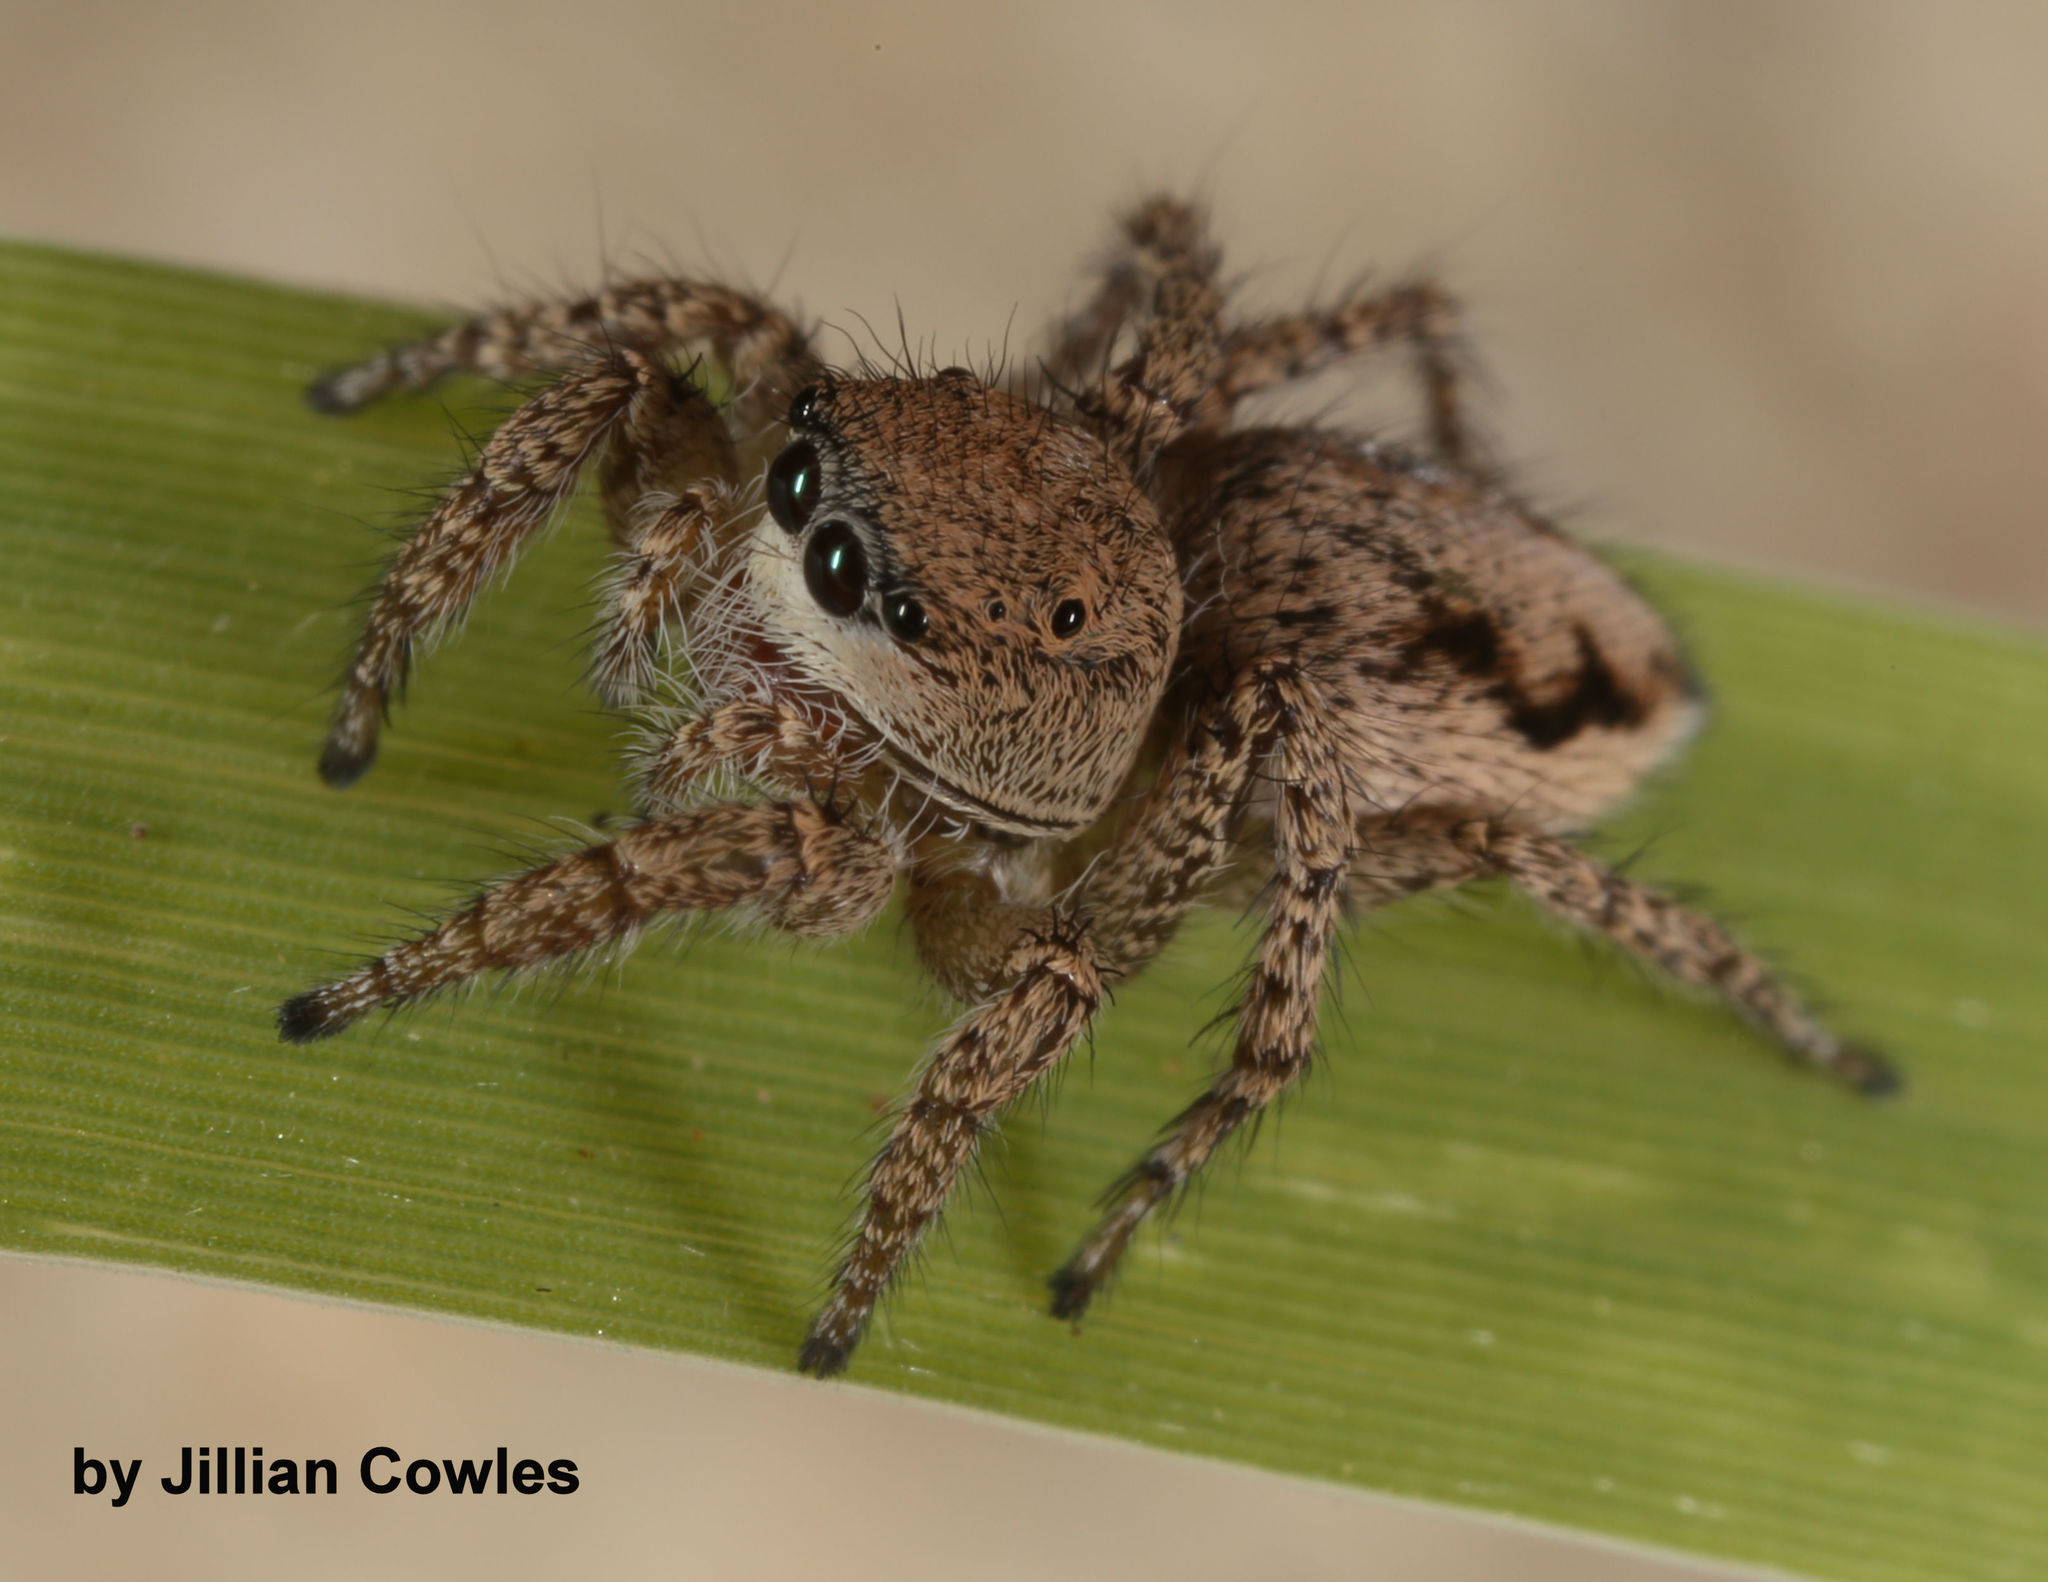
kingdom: Animalia
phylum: Arthropoda
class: Arachnida
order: Araneae
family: Salticidae
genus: Habronattus
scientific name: Habronattus pugillis
